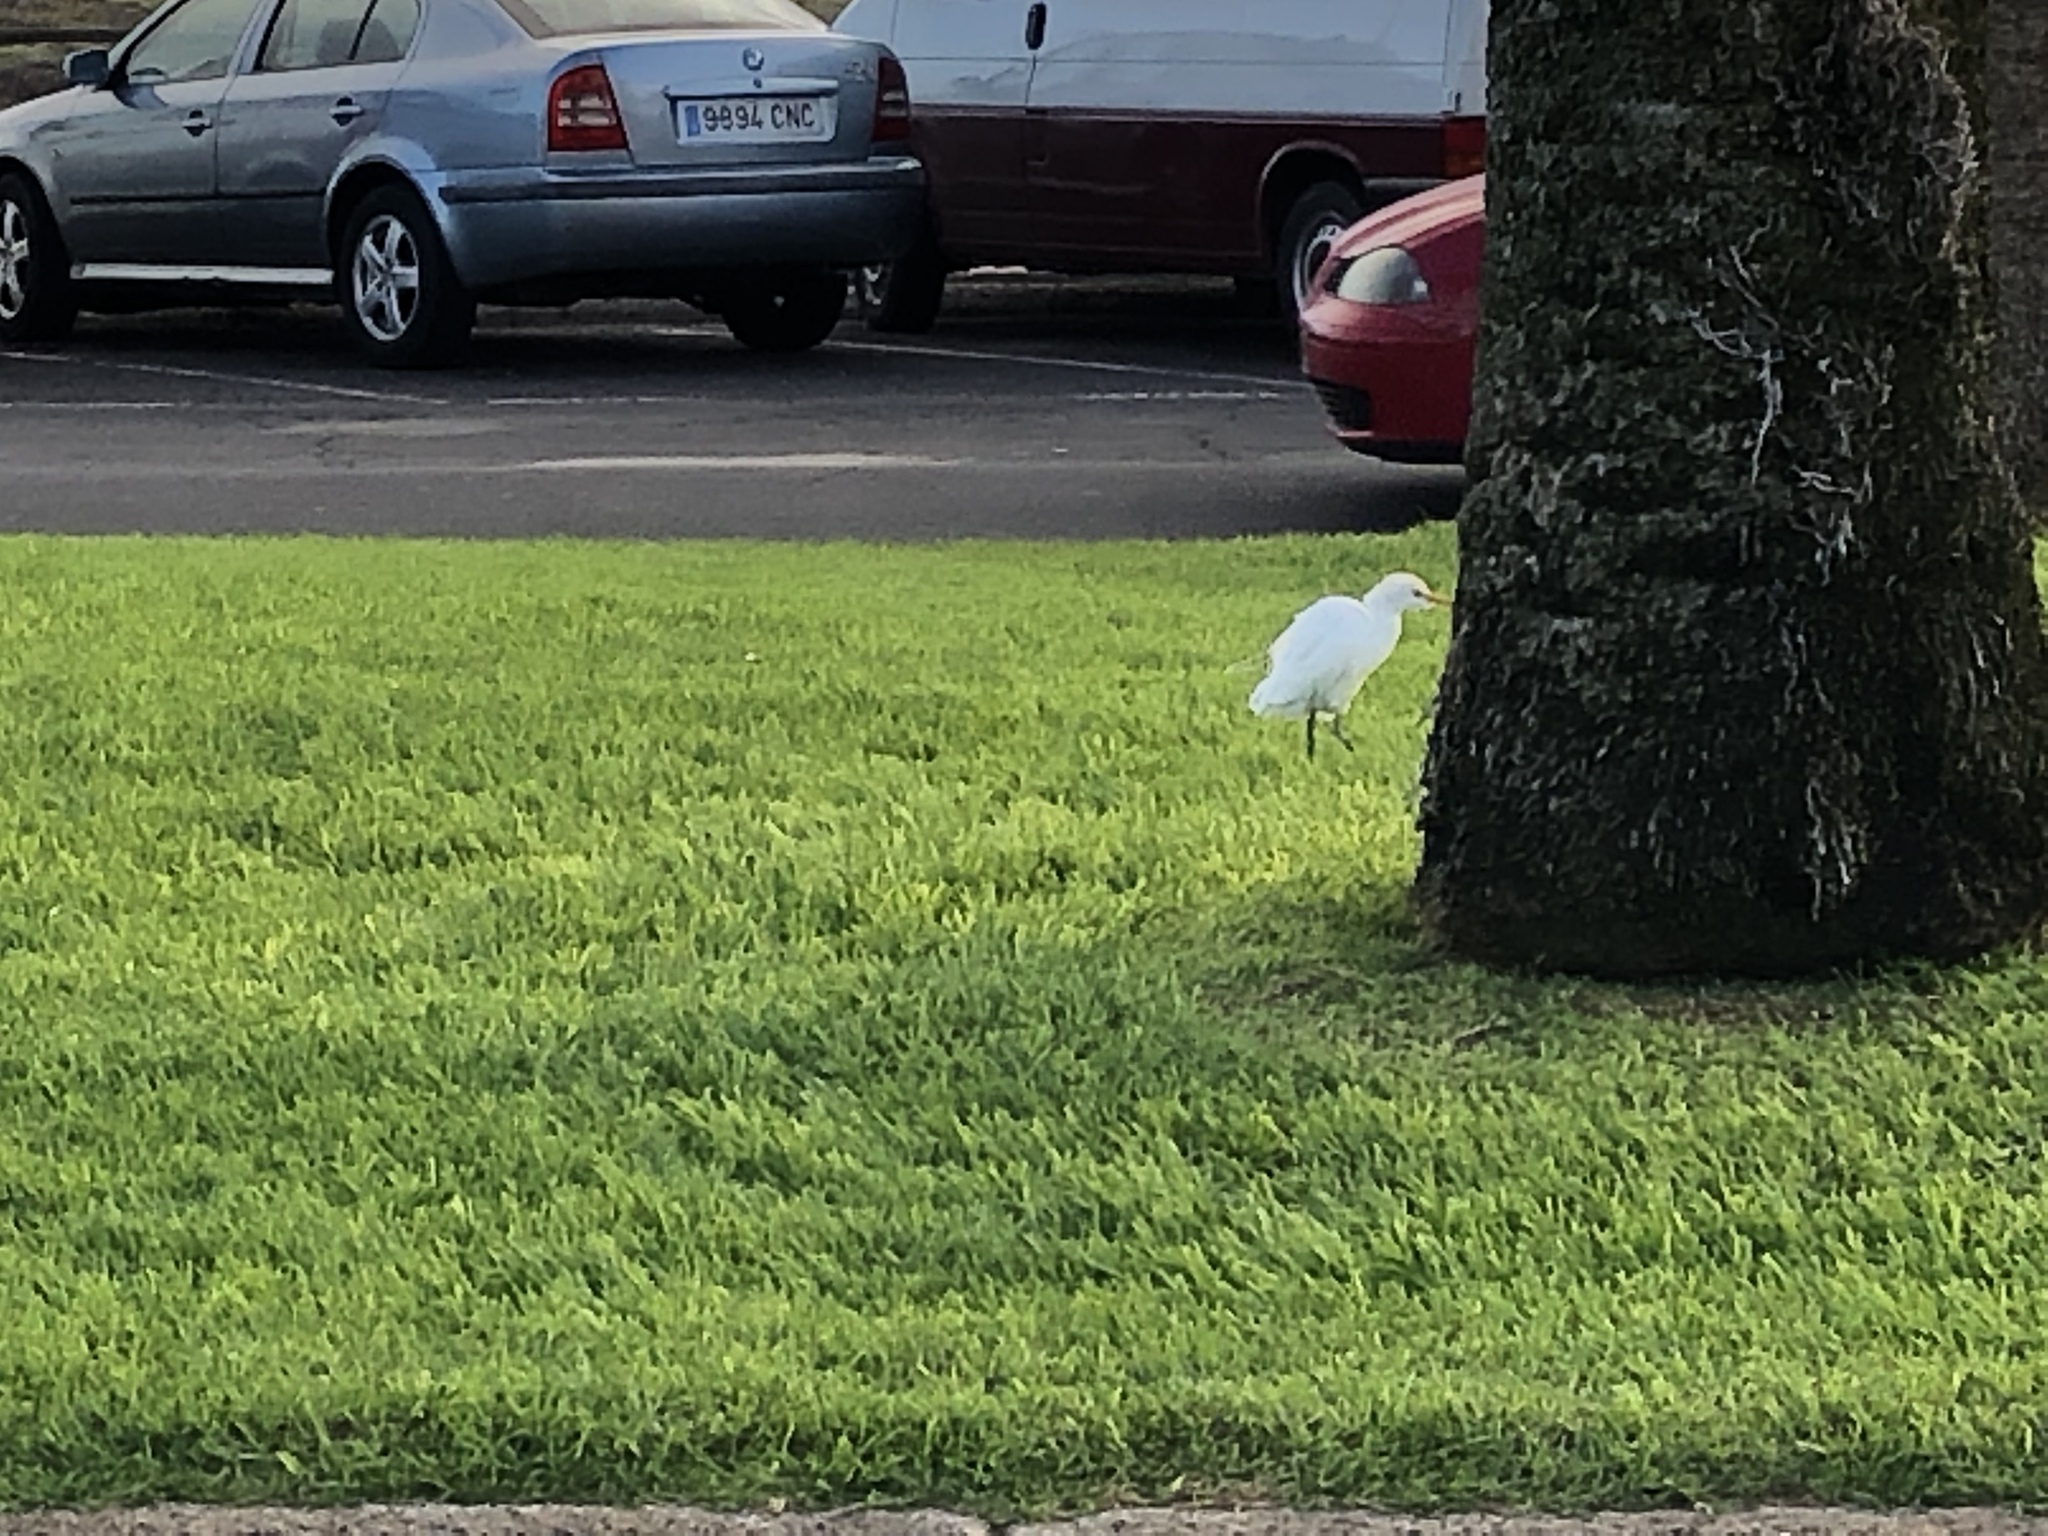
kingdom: Animalia
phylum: Chordata
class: Aves
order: Pelecaniformes
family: Ardeidae
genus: Bubulcus
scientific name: Bubulcus ibis
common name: Cattle egret
